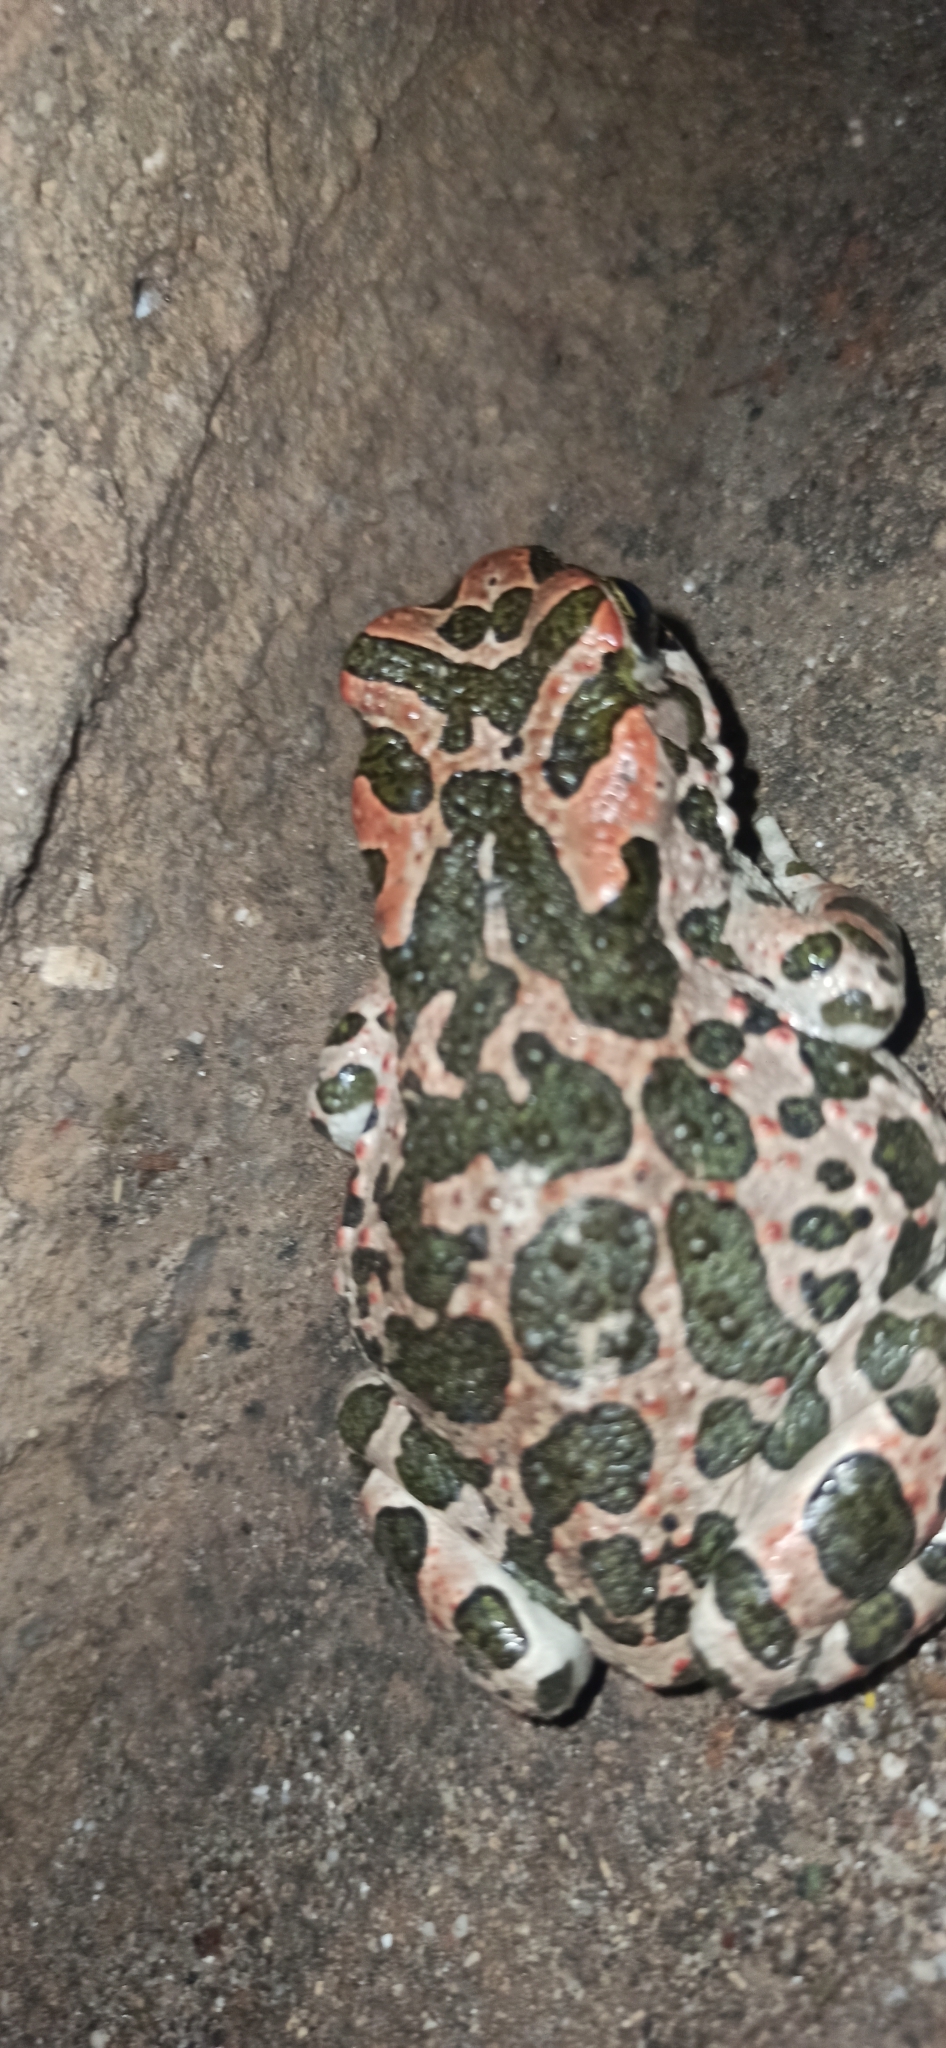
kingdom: Animalia
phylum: Chordata
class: Amphibia
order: Anura
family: Bufonidae
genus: Bufotes
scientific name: Bufotes viridis
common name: European green toad
